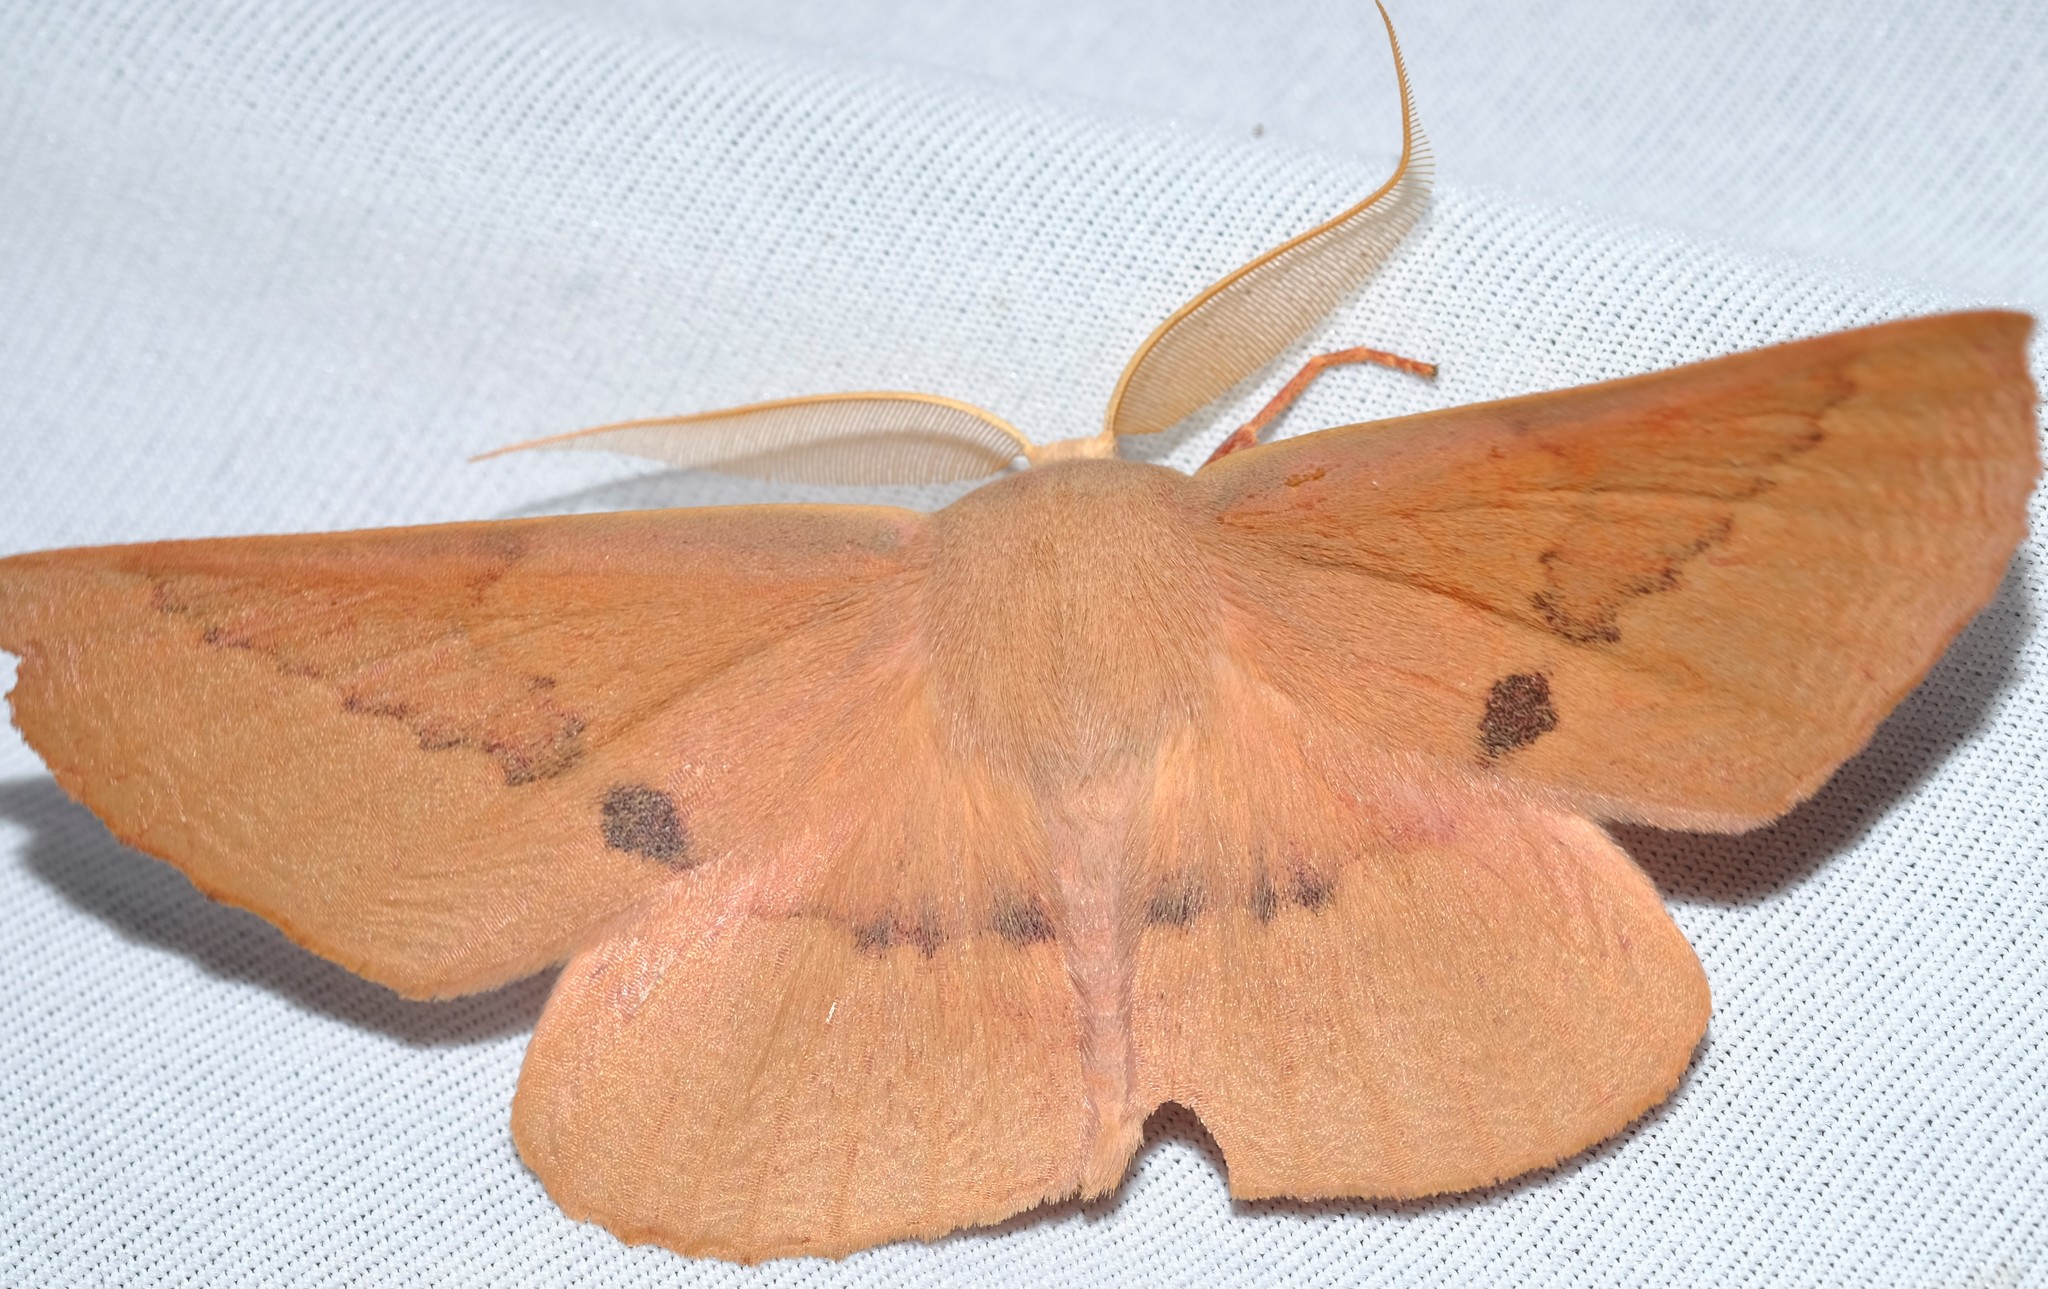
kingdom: Animalia
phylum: Arthropoda
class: Insecta
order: Lepidoptera
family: Geometridae
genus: Monoctenia
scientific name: Monoctenia falernaria
